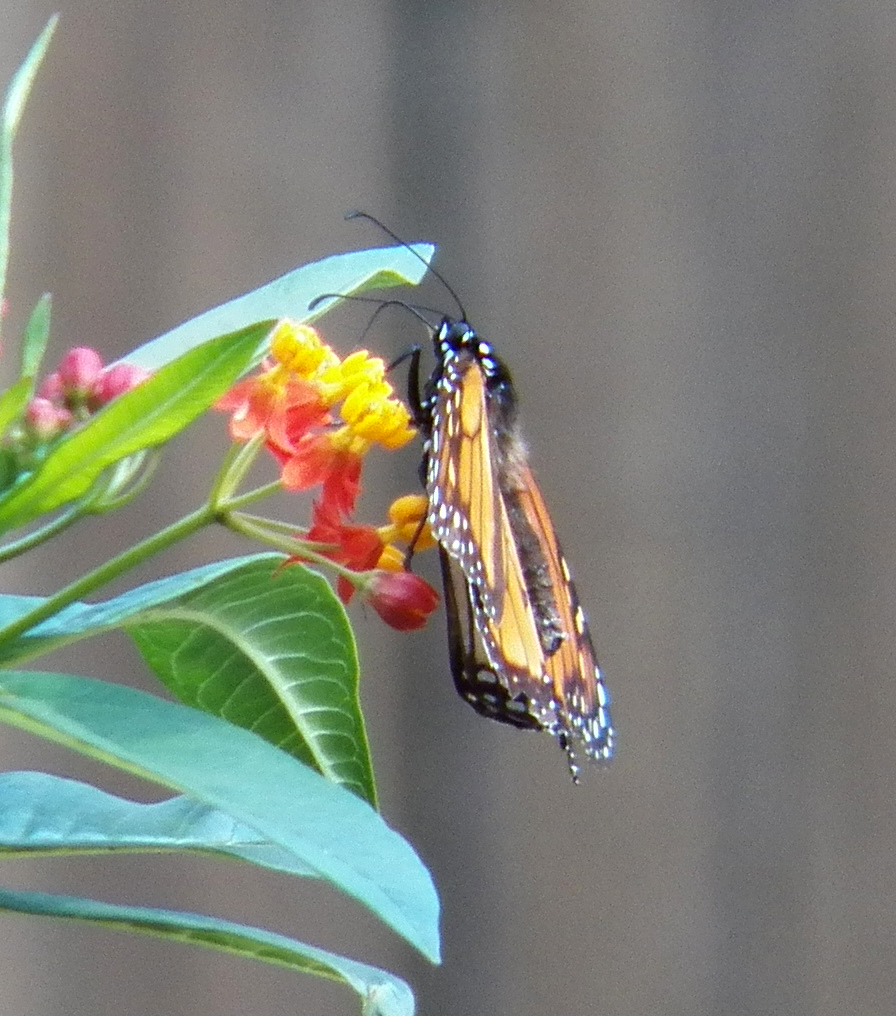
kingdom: Animalia
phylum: Arthropoda
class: Insecta
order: Lepidoptera
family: Nymphalidae
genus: Danaus
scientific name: Danaus plexippus
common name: Monarch
